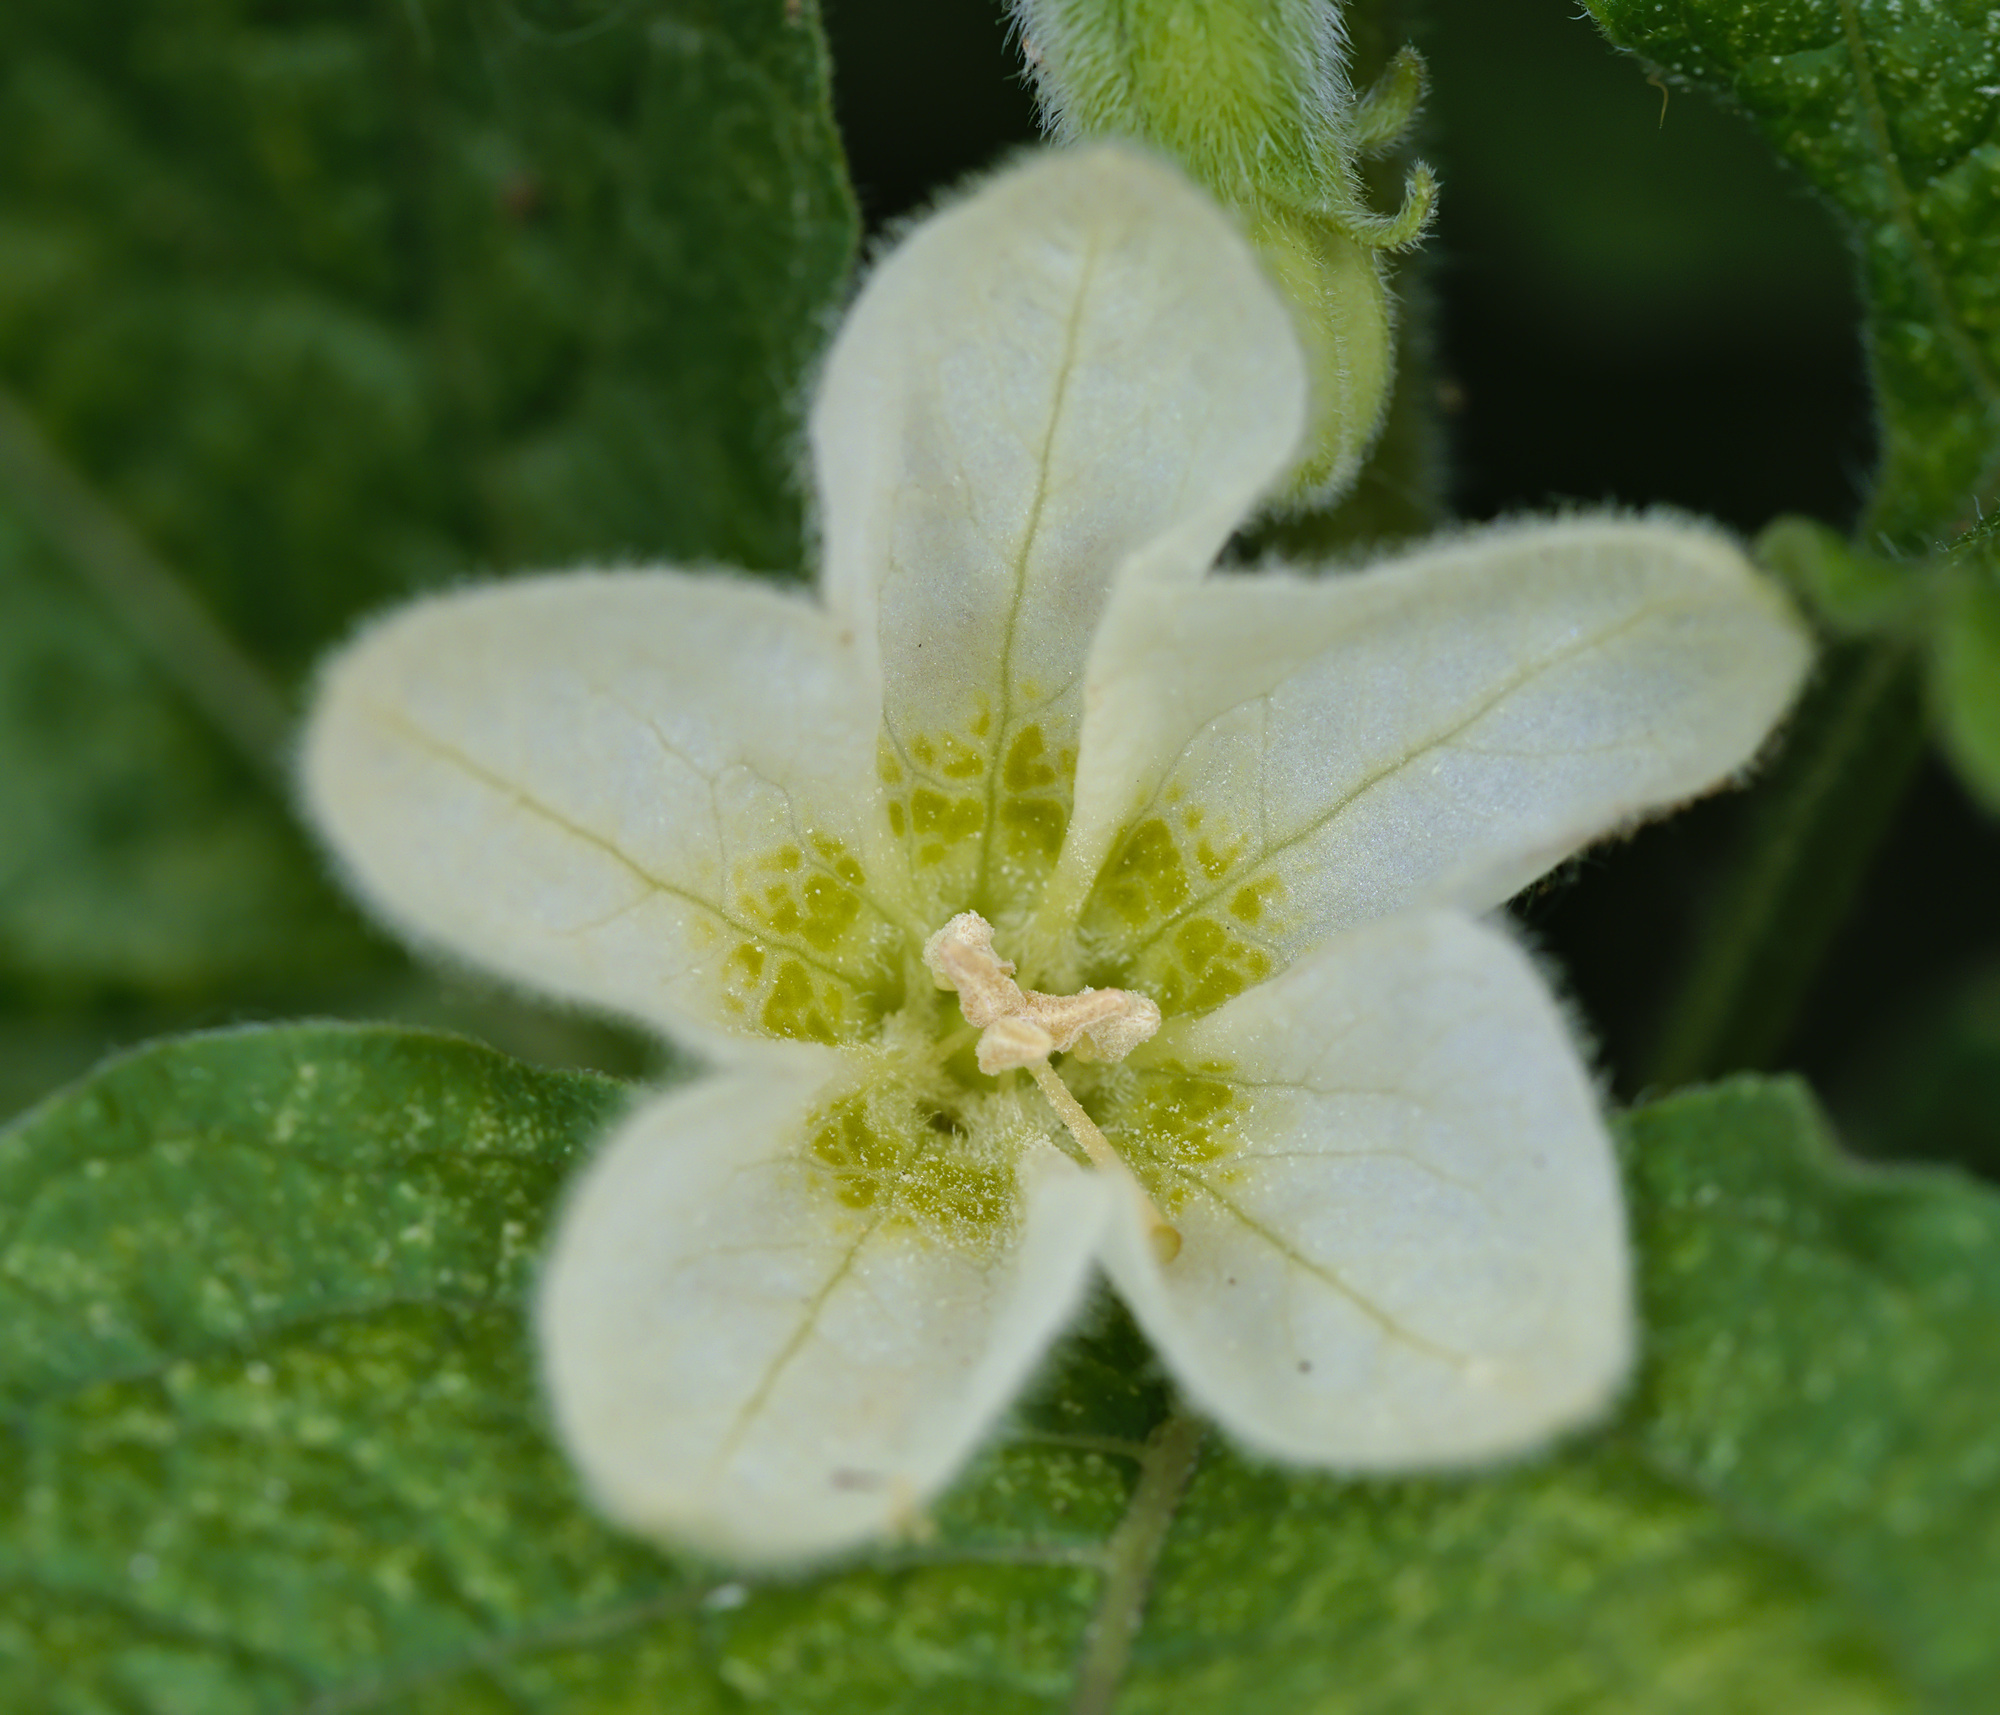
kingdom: Plantae
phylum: Tracheophyta
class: Magnoliopsida
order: Solanales
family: Solanaceae
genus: Alkekengi
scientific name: Alkekengi officinarum
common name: Japanese-lantern
